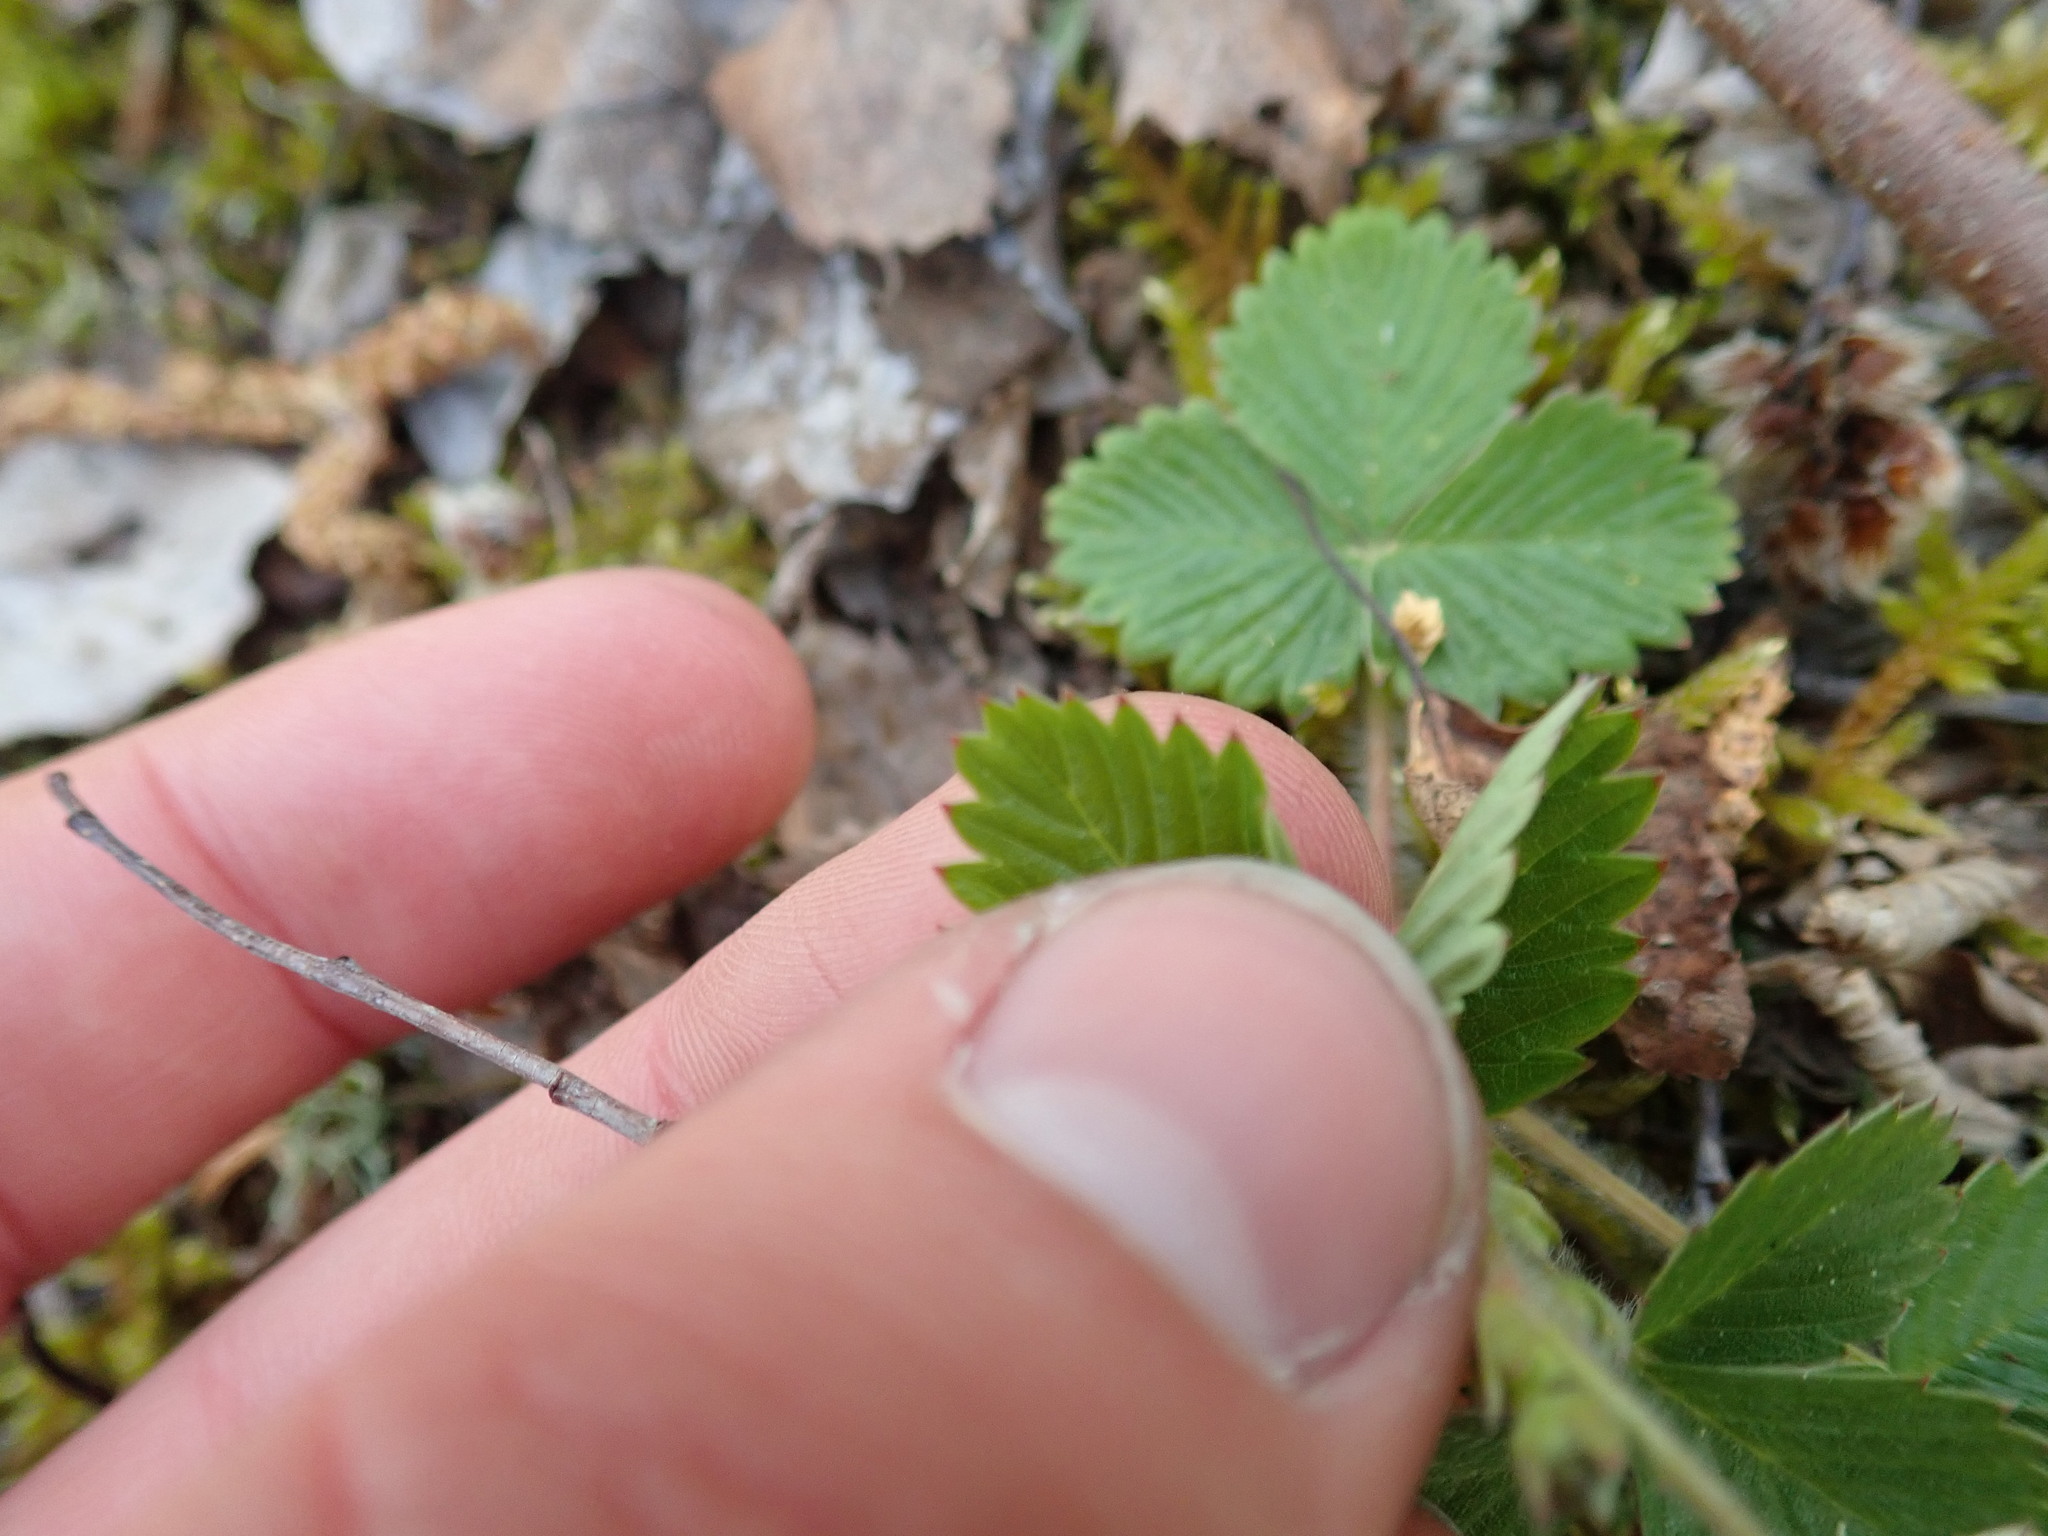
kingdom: Plantae
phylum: Tracheophyta
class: Magnoliopsida
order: Rosales
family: Rosaceae
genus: Fragaria
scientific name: Fragaria vesca
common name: Wild strawberry
